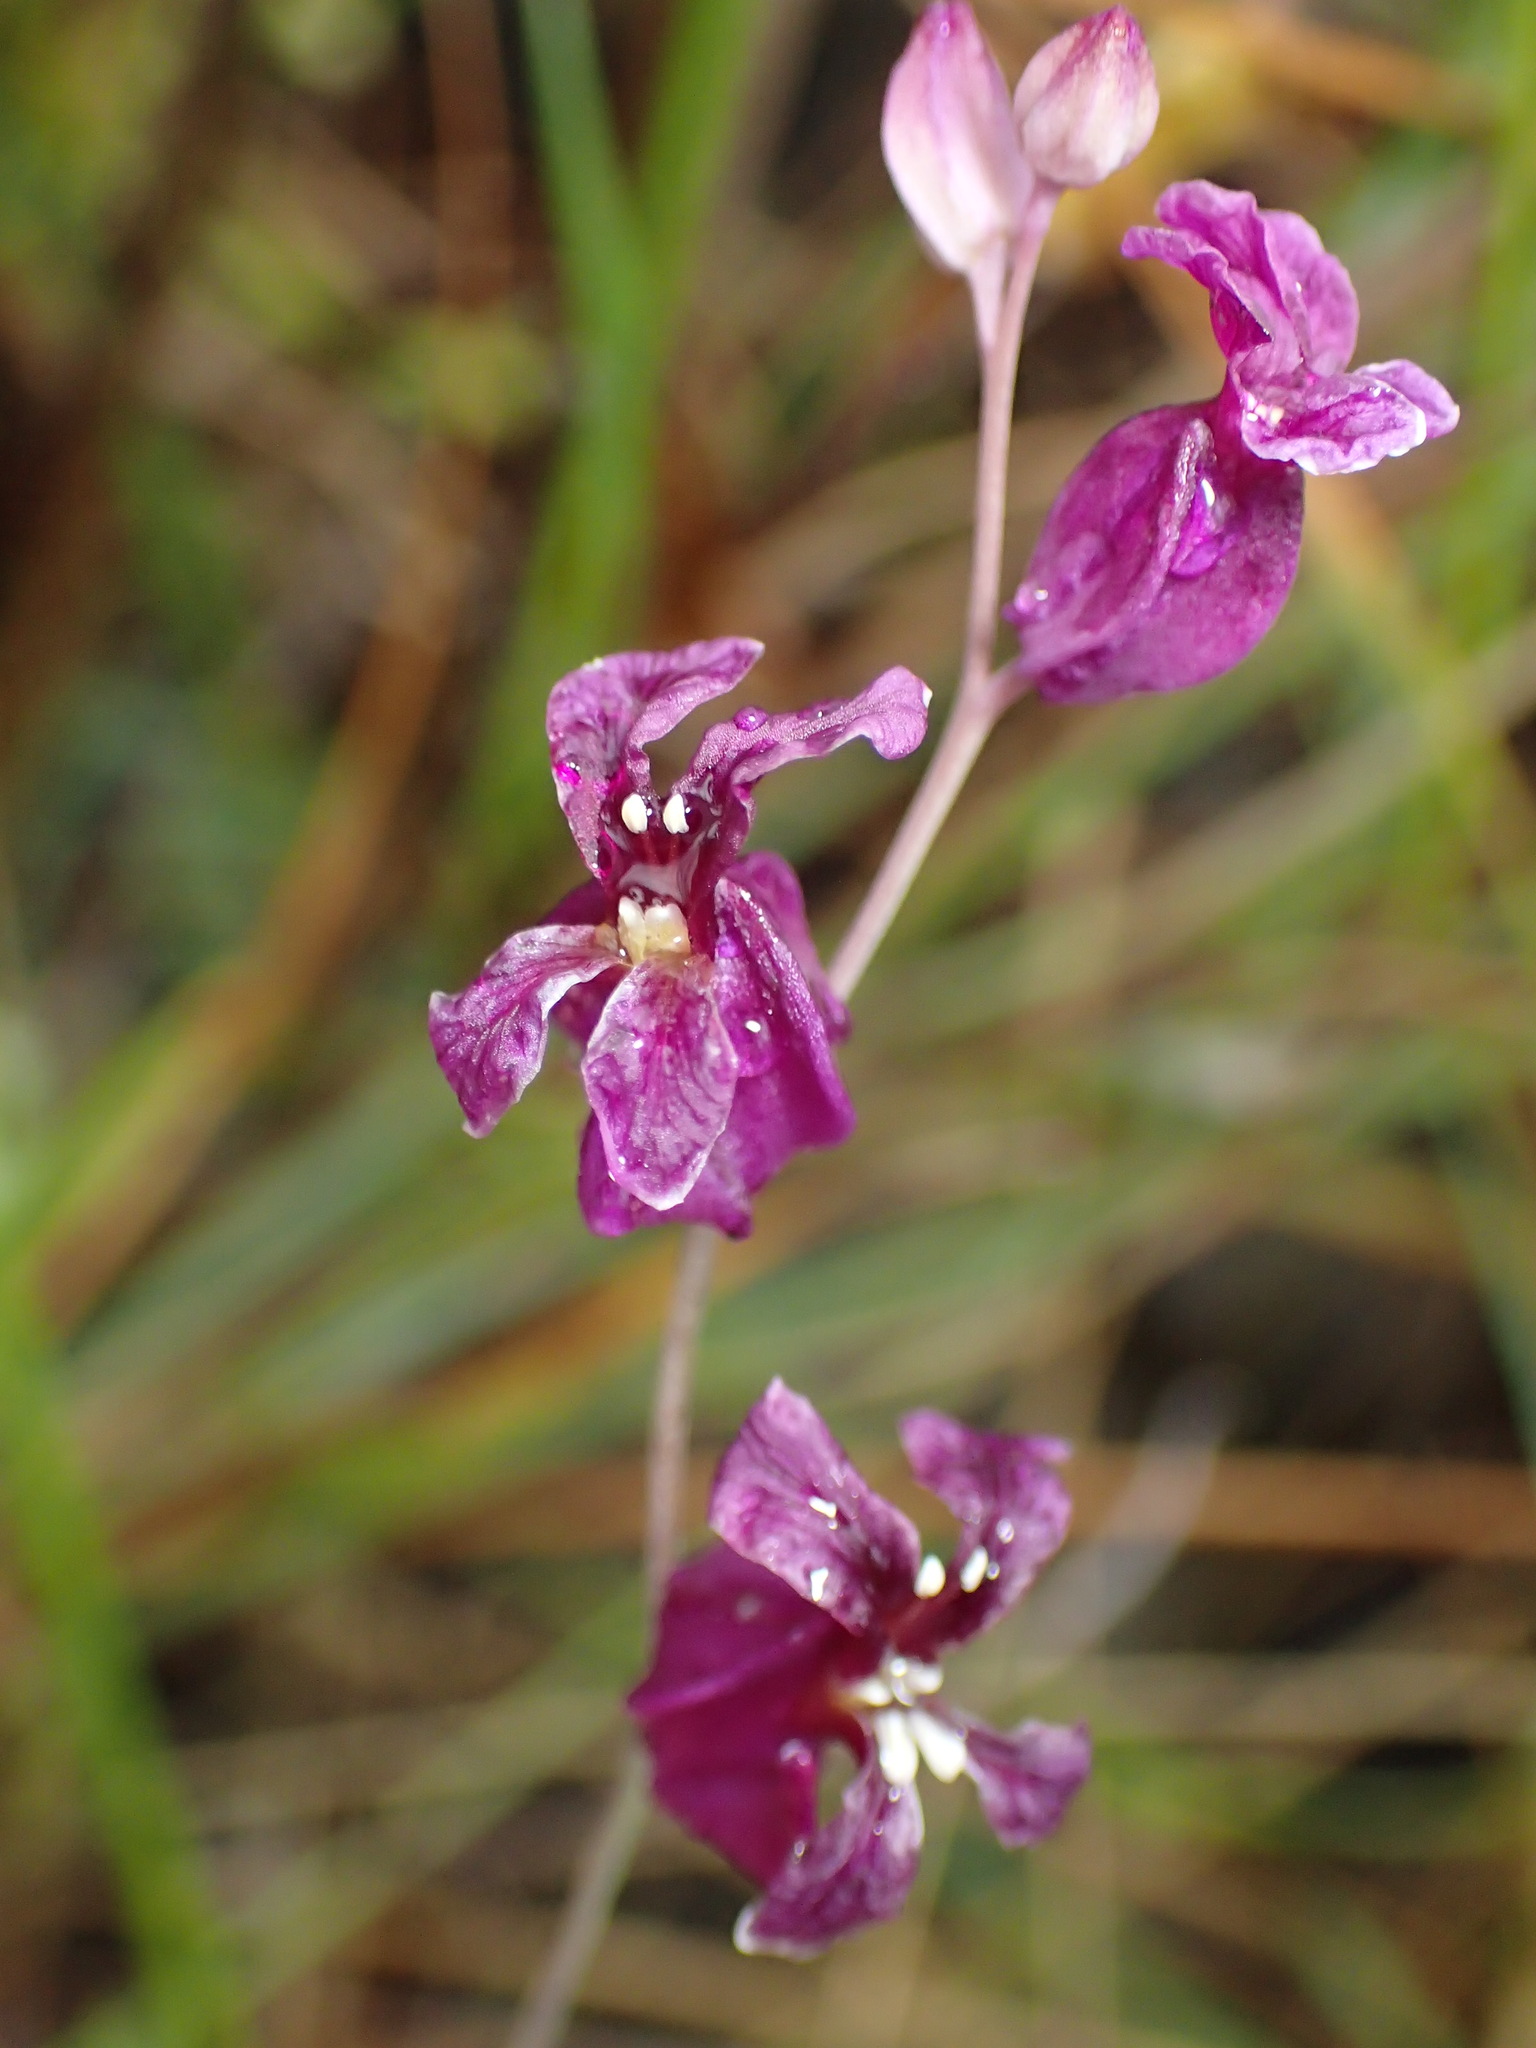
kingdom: Plantae
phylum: Tracheophyta
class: Magnoliopsida
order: Brassicales
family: Brassicaceae
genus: Streptanthus
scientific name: Streptanthus glandulosus
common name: Jewel-flower
